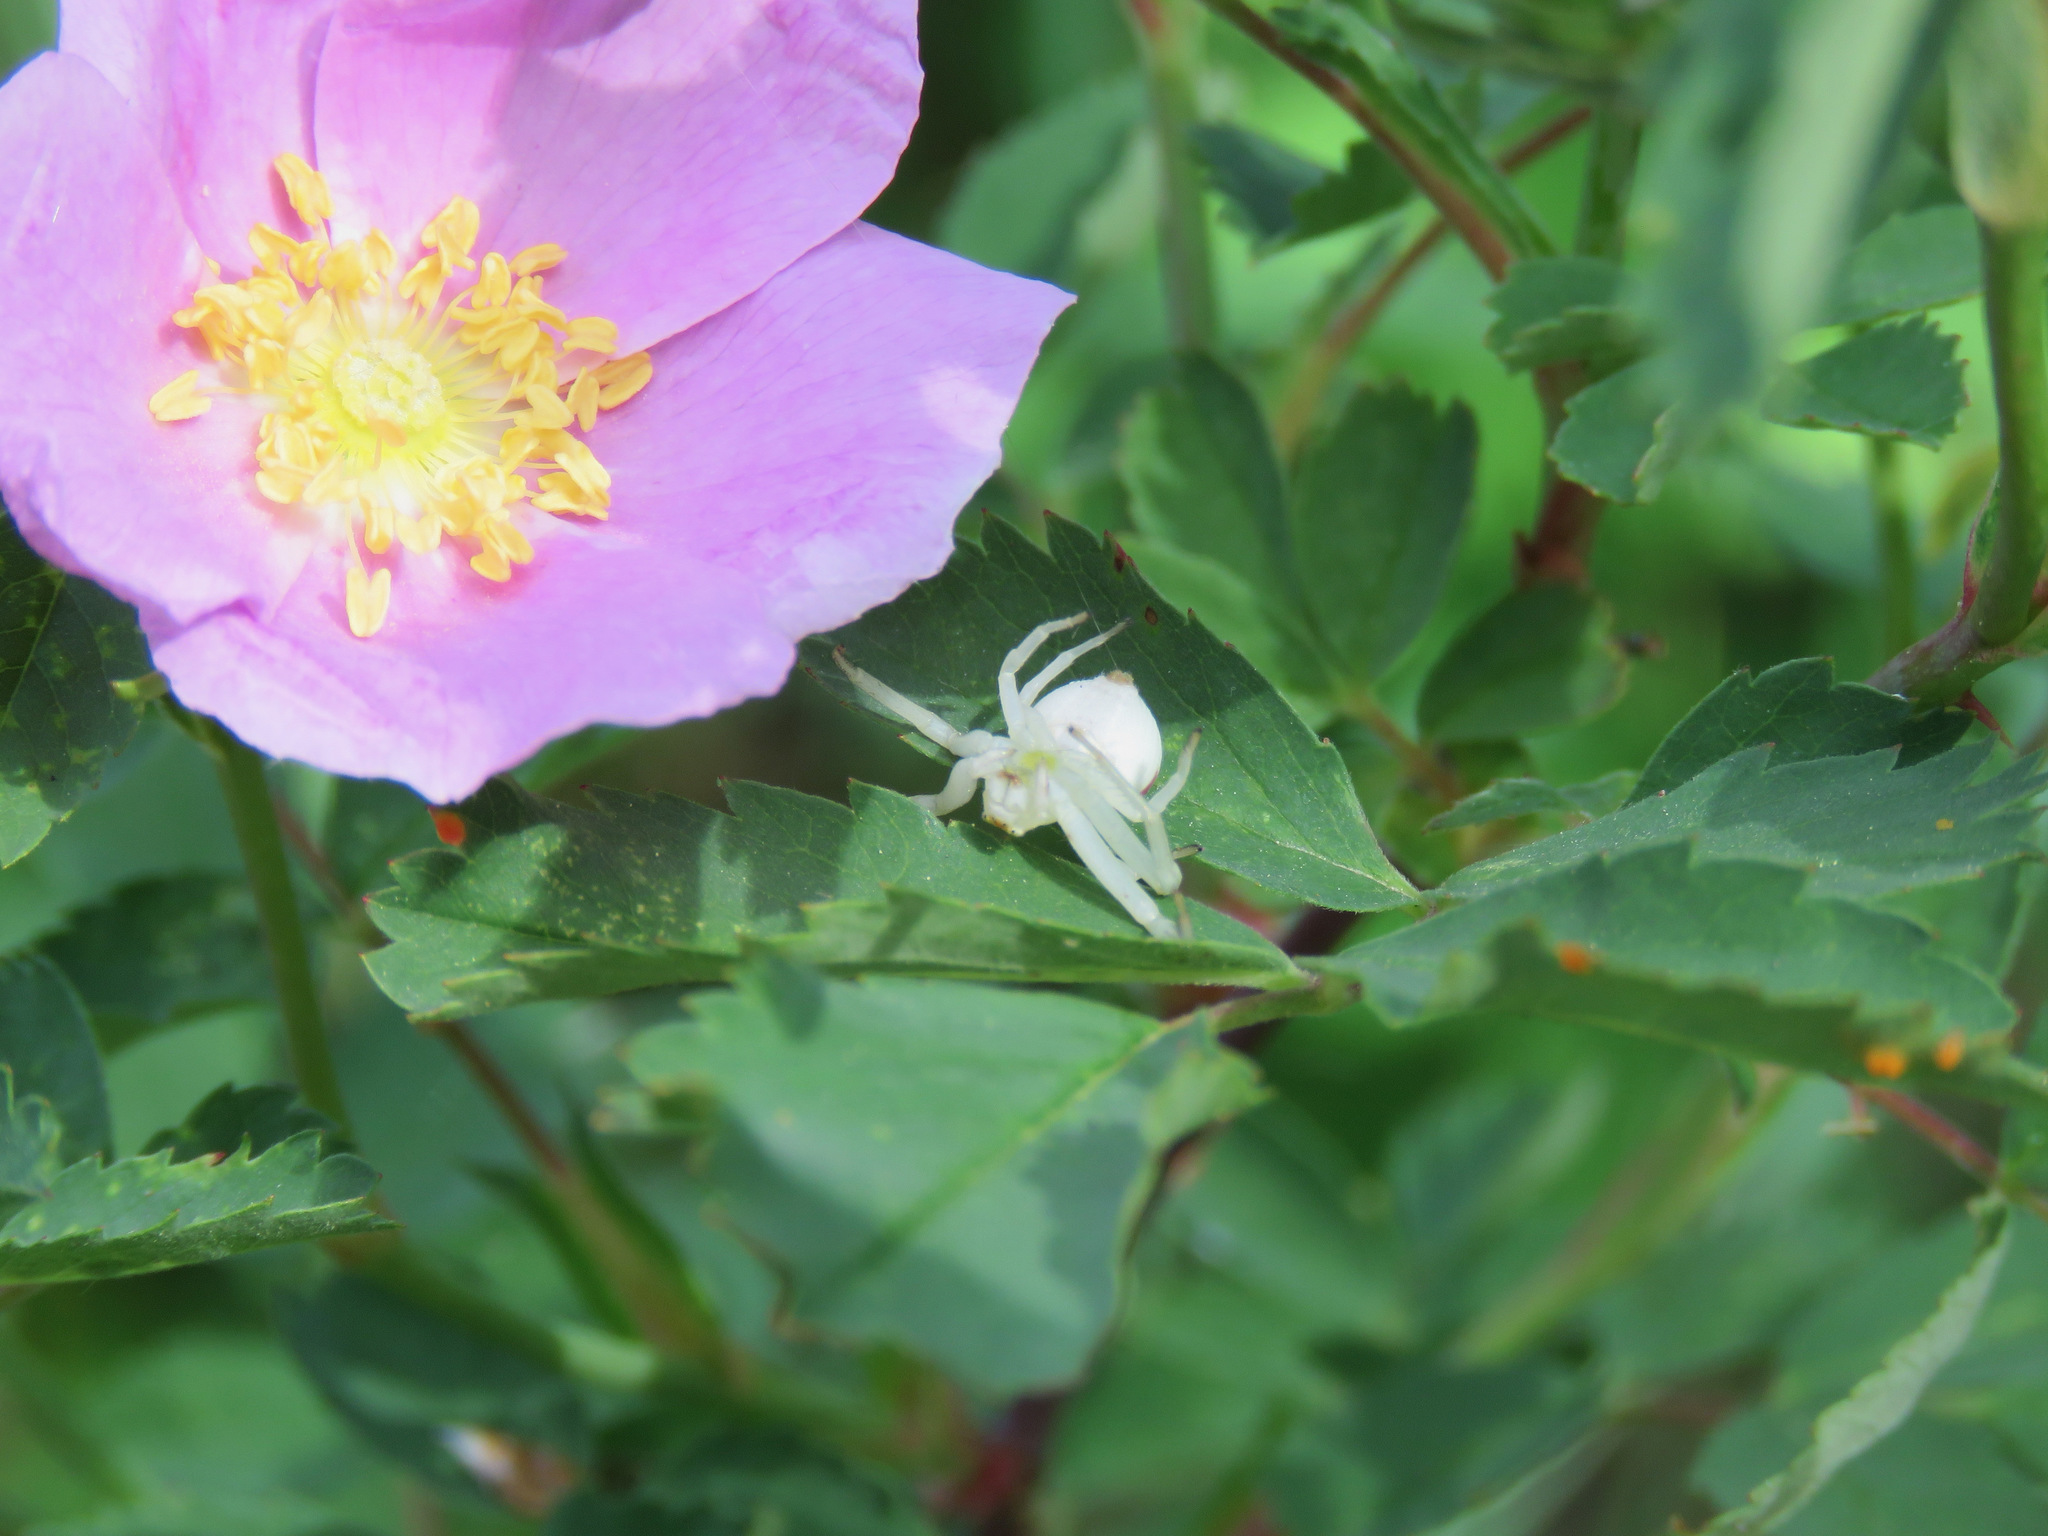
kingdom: Animalia
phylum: Arthropoda
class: Arachnida
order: Araneae
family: Thomisidae
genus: Misumena
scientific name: Misumena vatia
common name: Goldenrod crab spider
